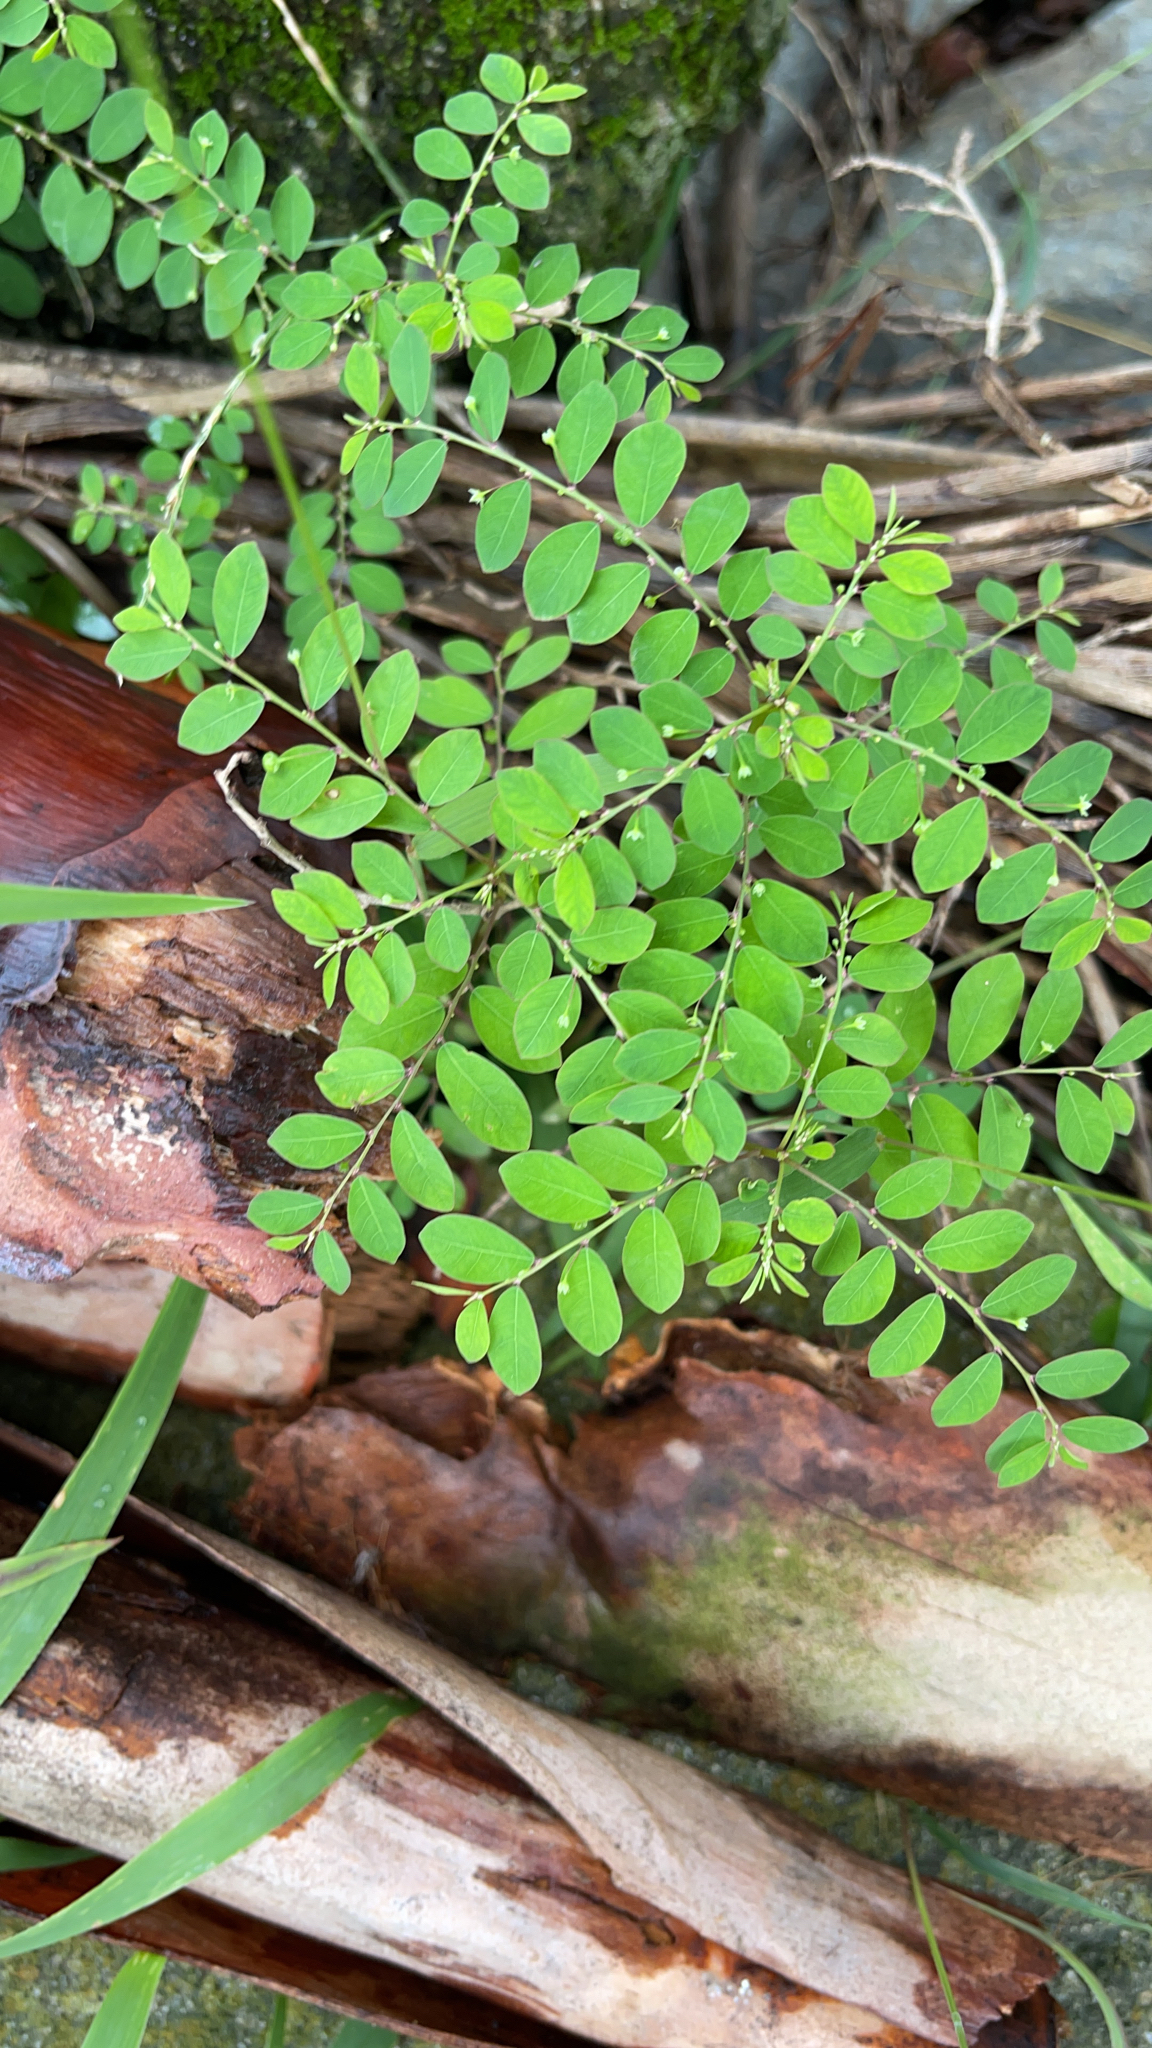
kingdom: Plantae
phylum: Tracheophyta
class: Magnoliopsida
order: Malpighiales
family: Phyllanthaceae
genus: Phyllanthus
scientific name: Phyllanthus tenellus
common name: Mascarene island leaf-flower
